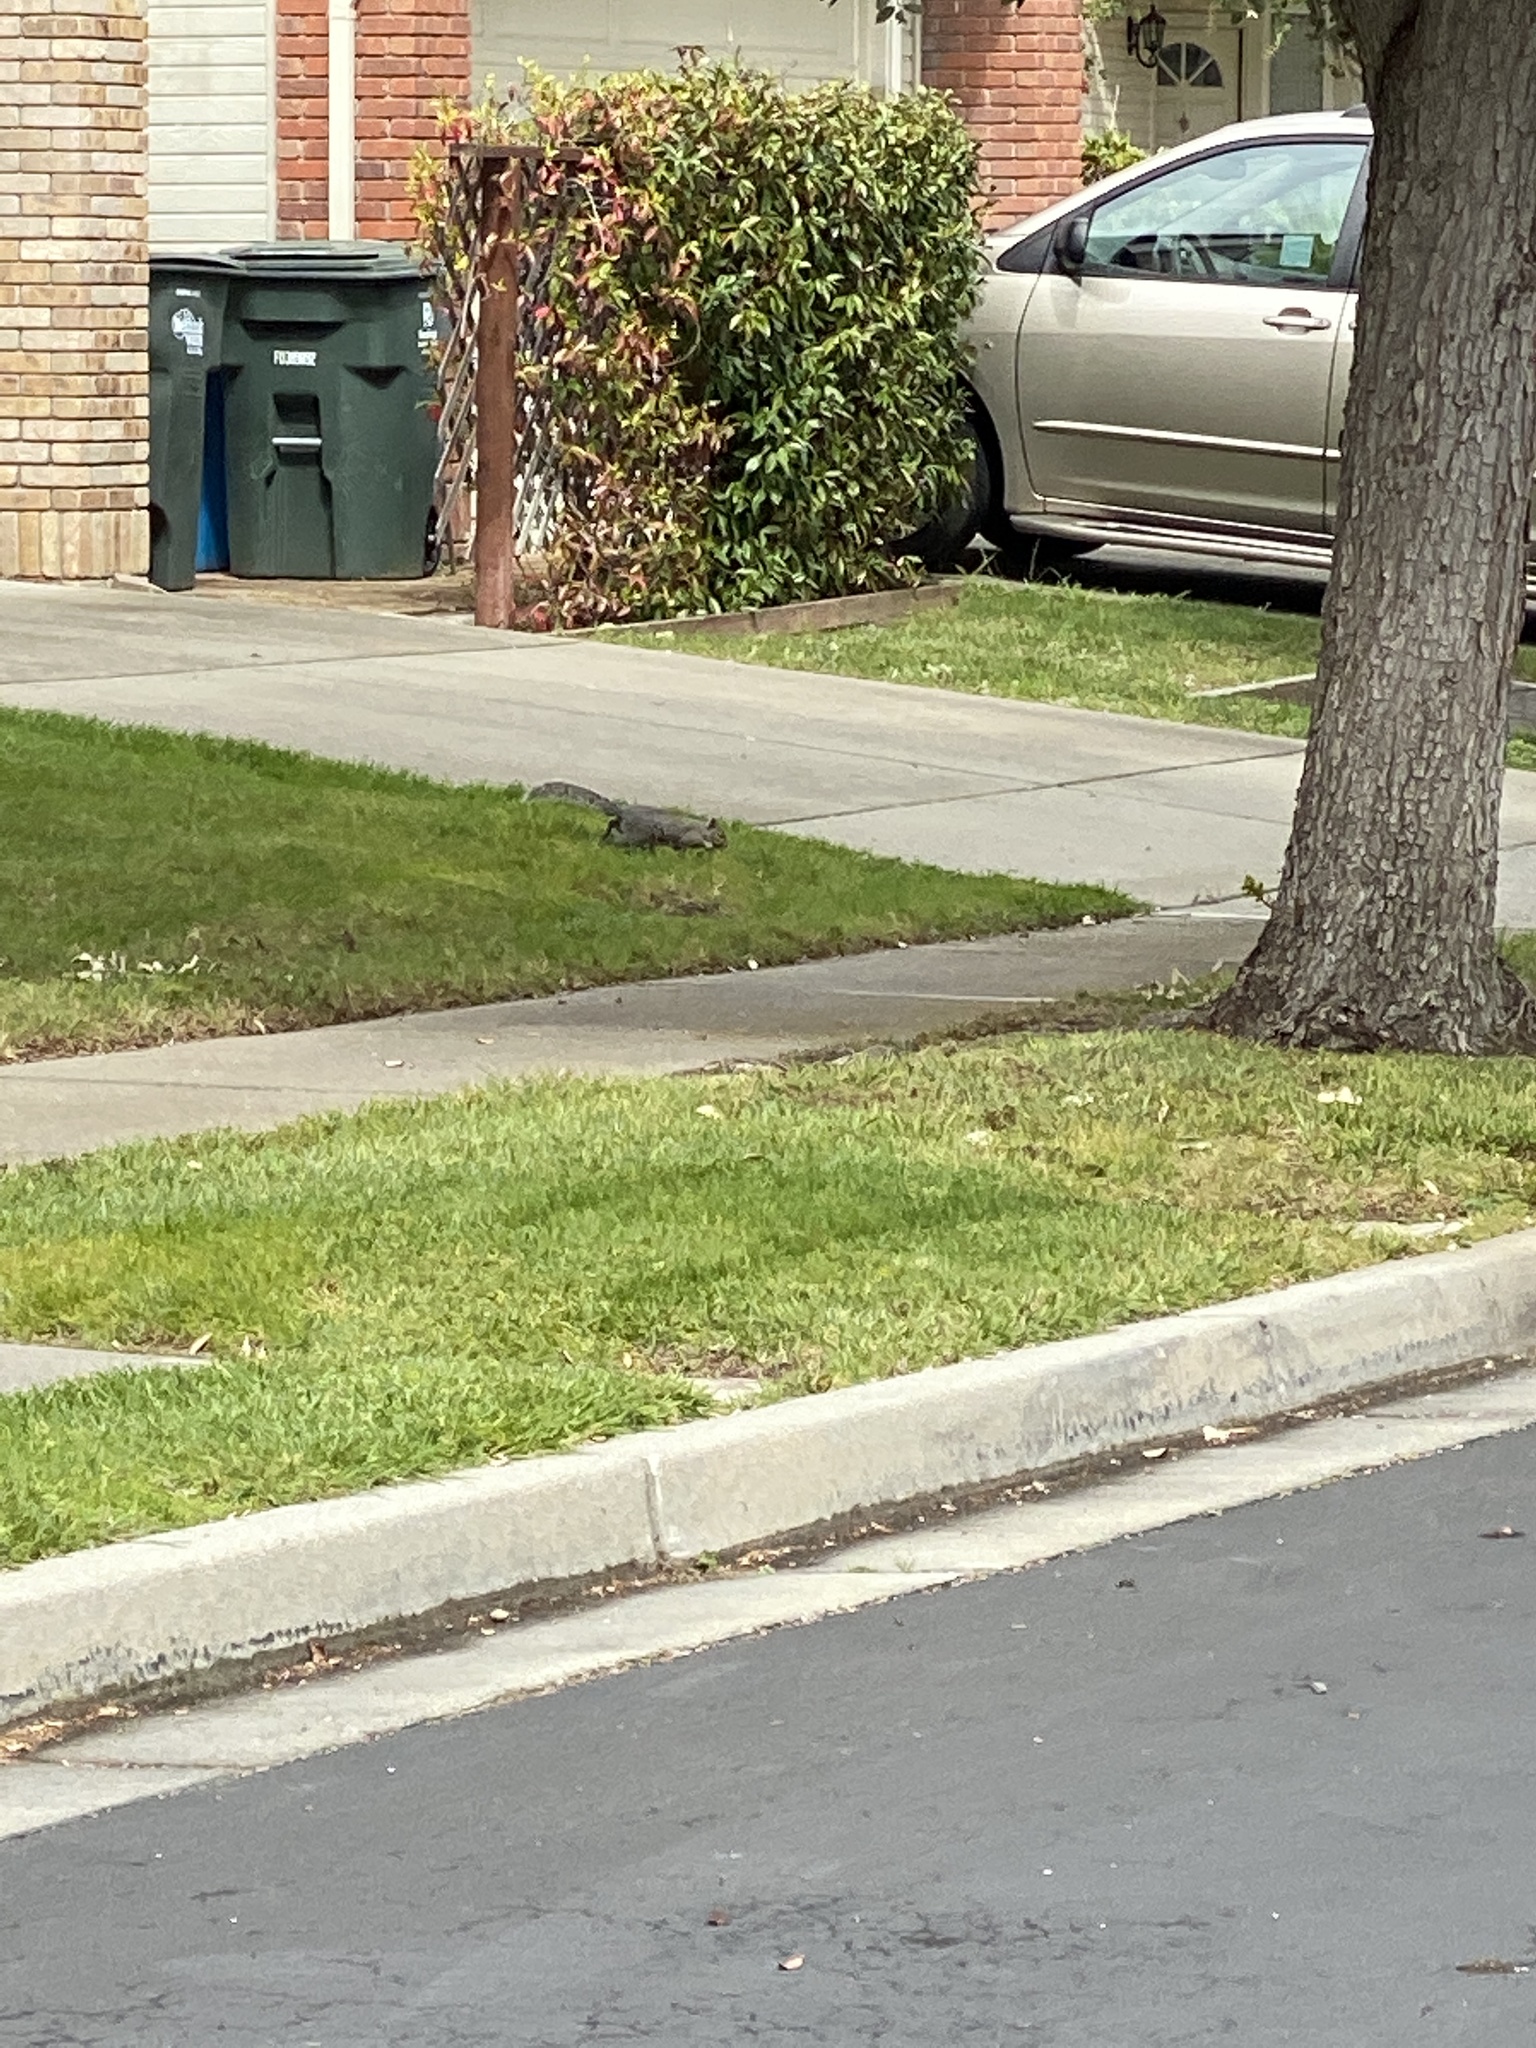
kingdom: Animalia
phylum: Chordata
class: Mammalia
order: Rodentia
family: Sciuridae
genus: Sciurus
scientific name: Sciurus carolinensis
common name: Eastern gray squirrel
